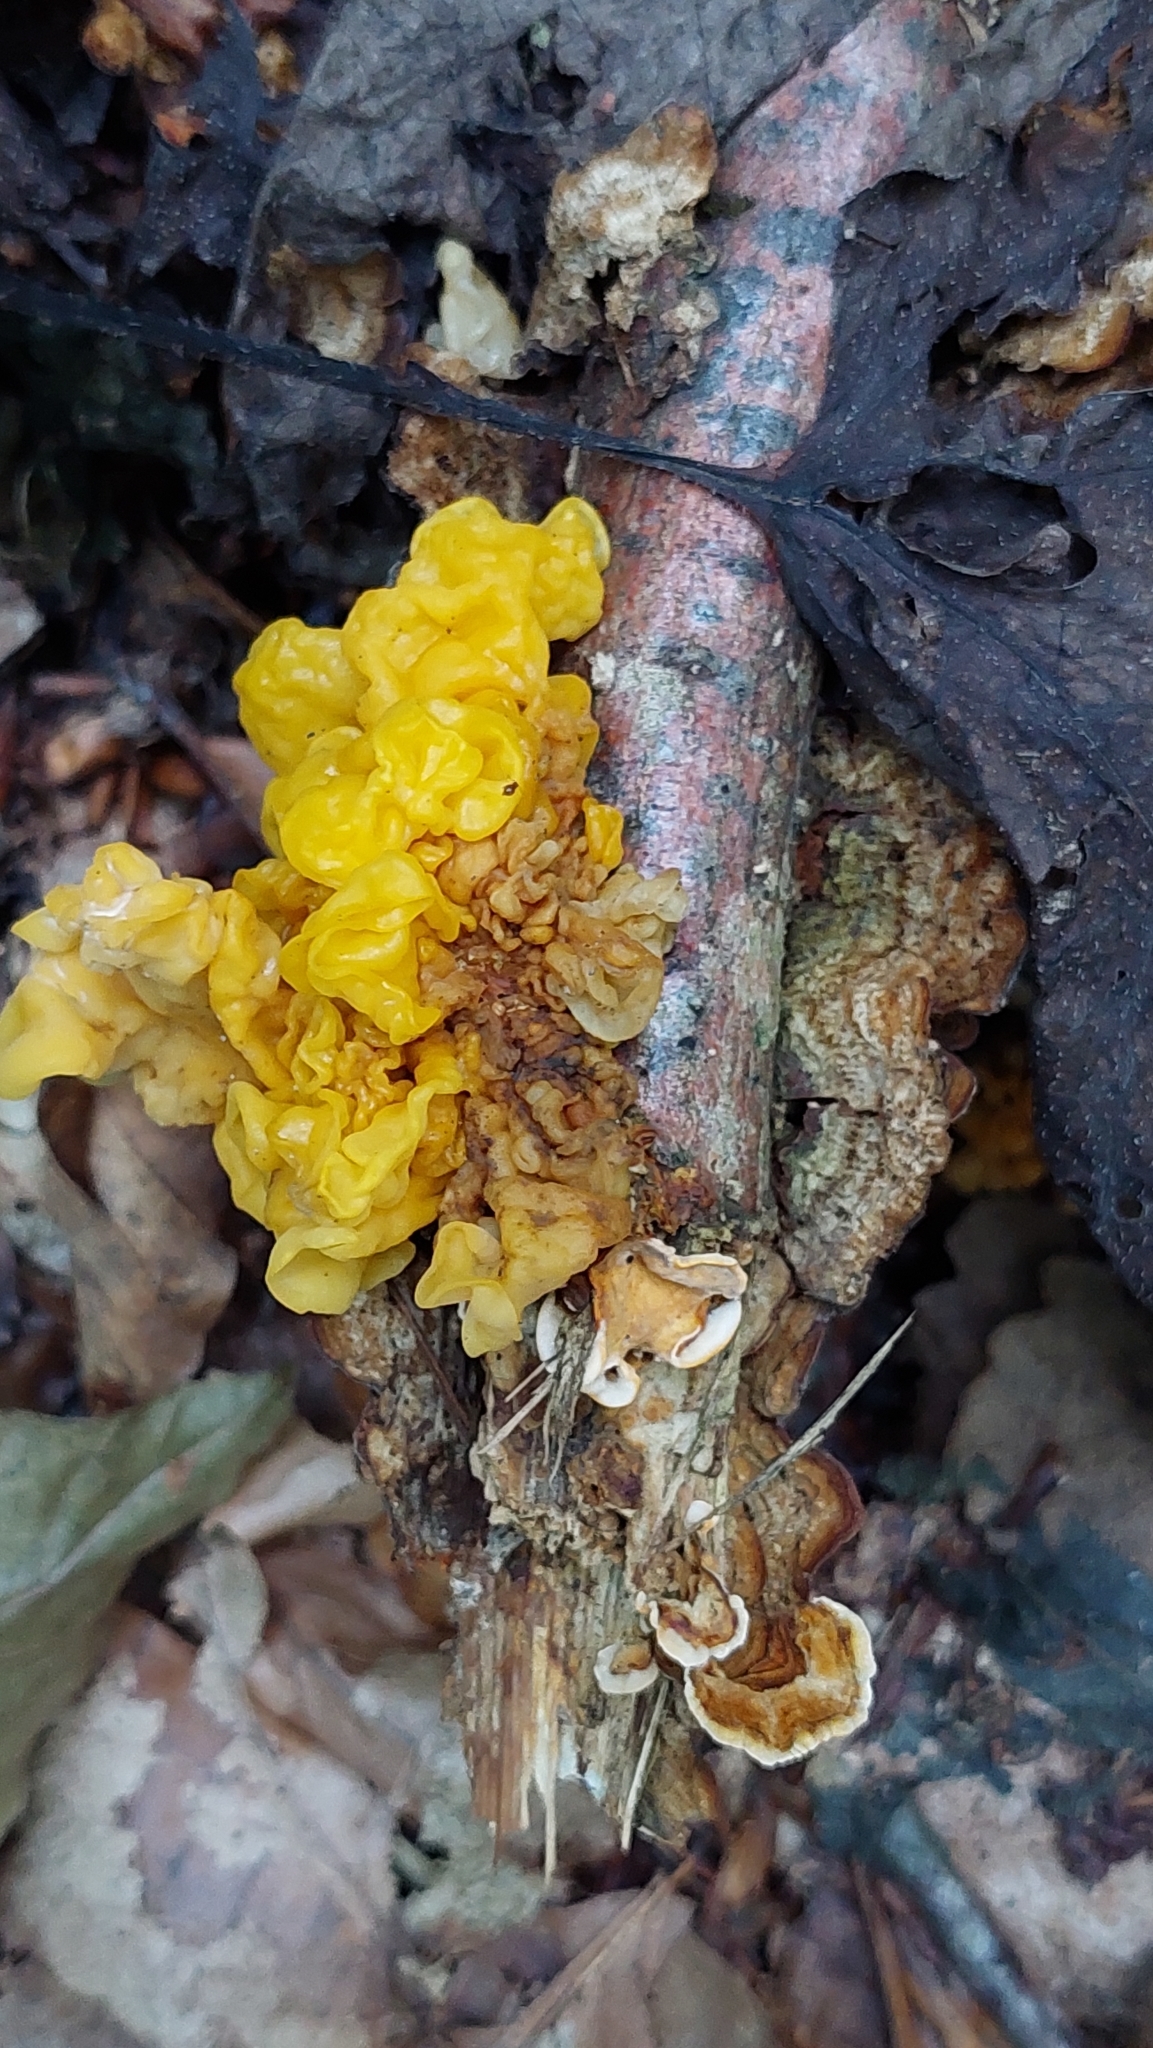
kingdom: Fungi
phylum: Basidiomycota
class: Tremellomycetes
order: Tremellales
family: Naemateliaceae
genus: Naematelia
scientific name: Naematelia aurantia
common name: Golden ear
